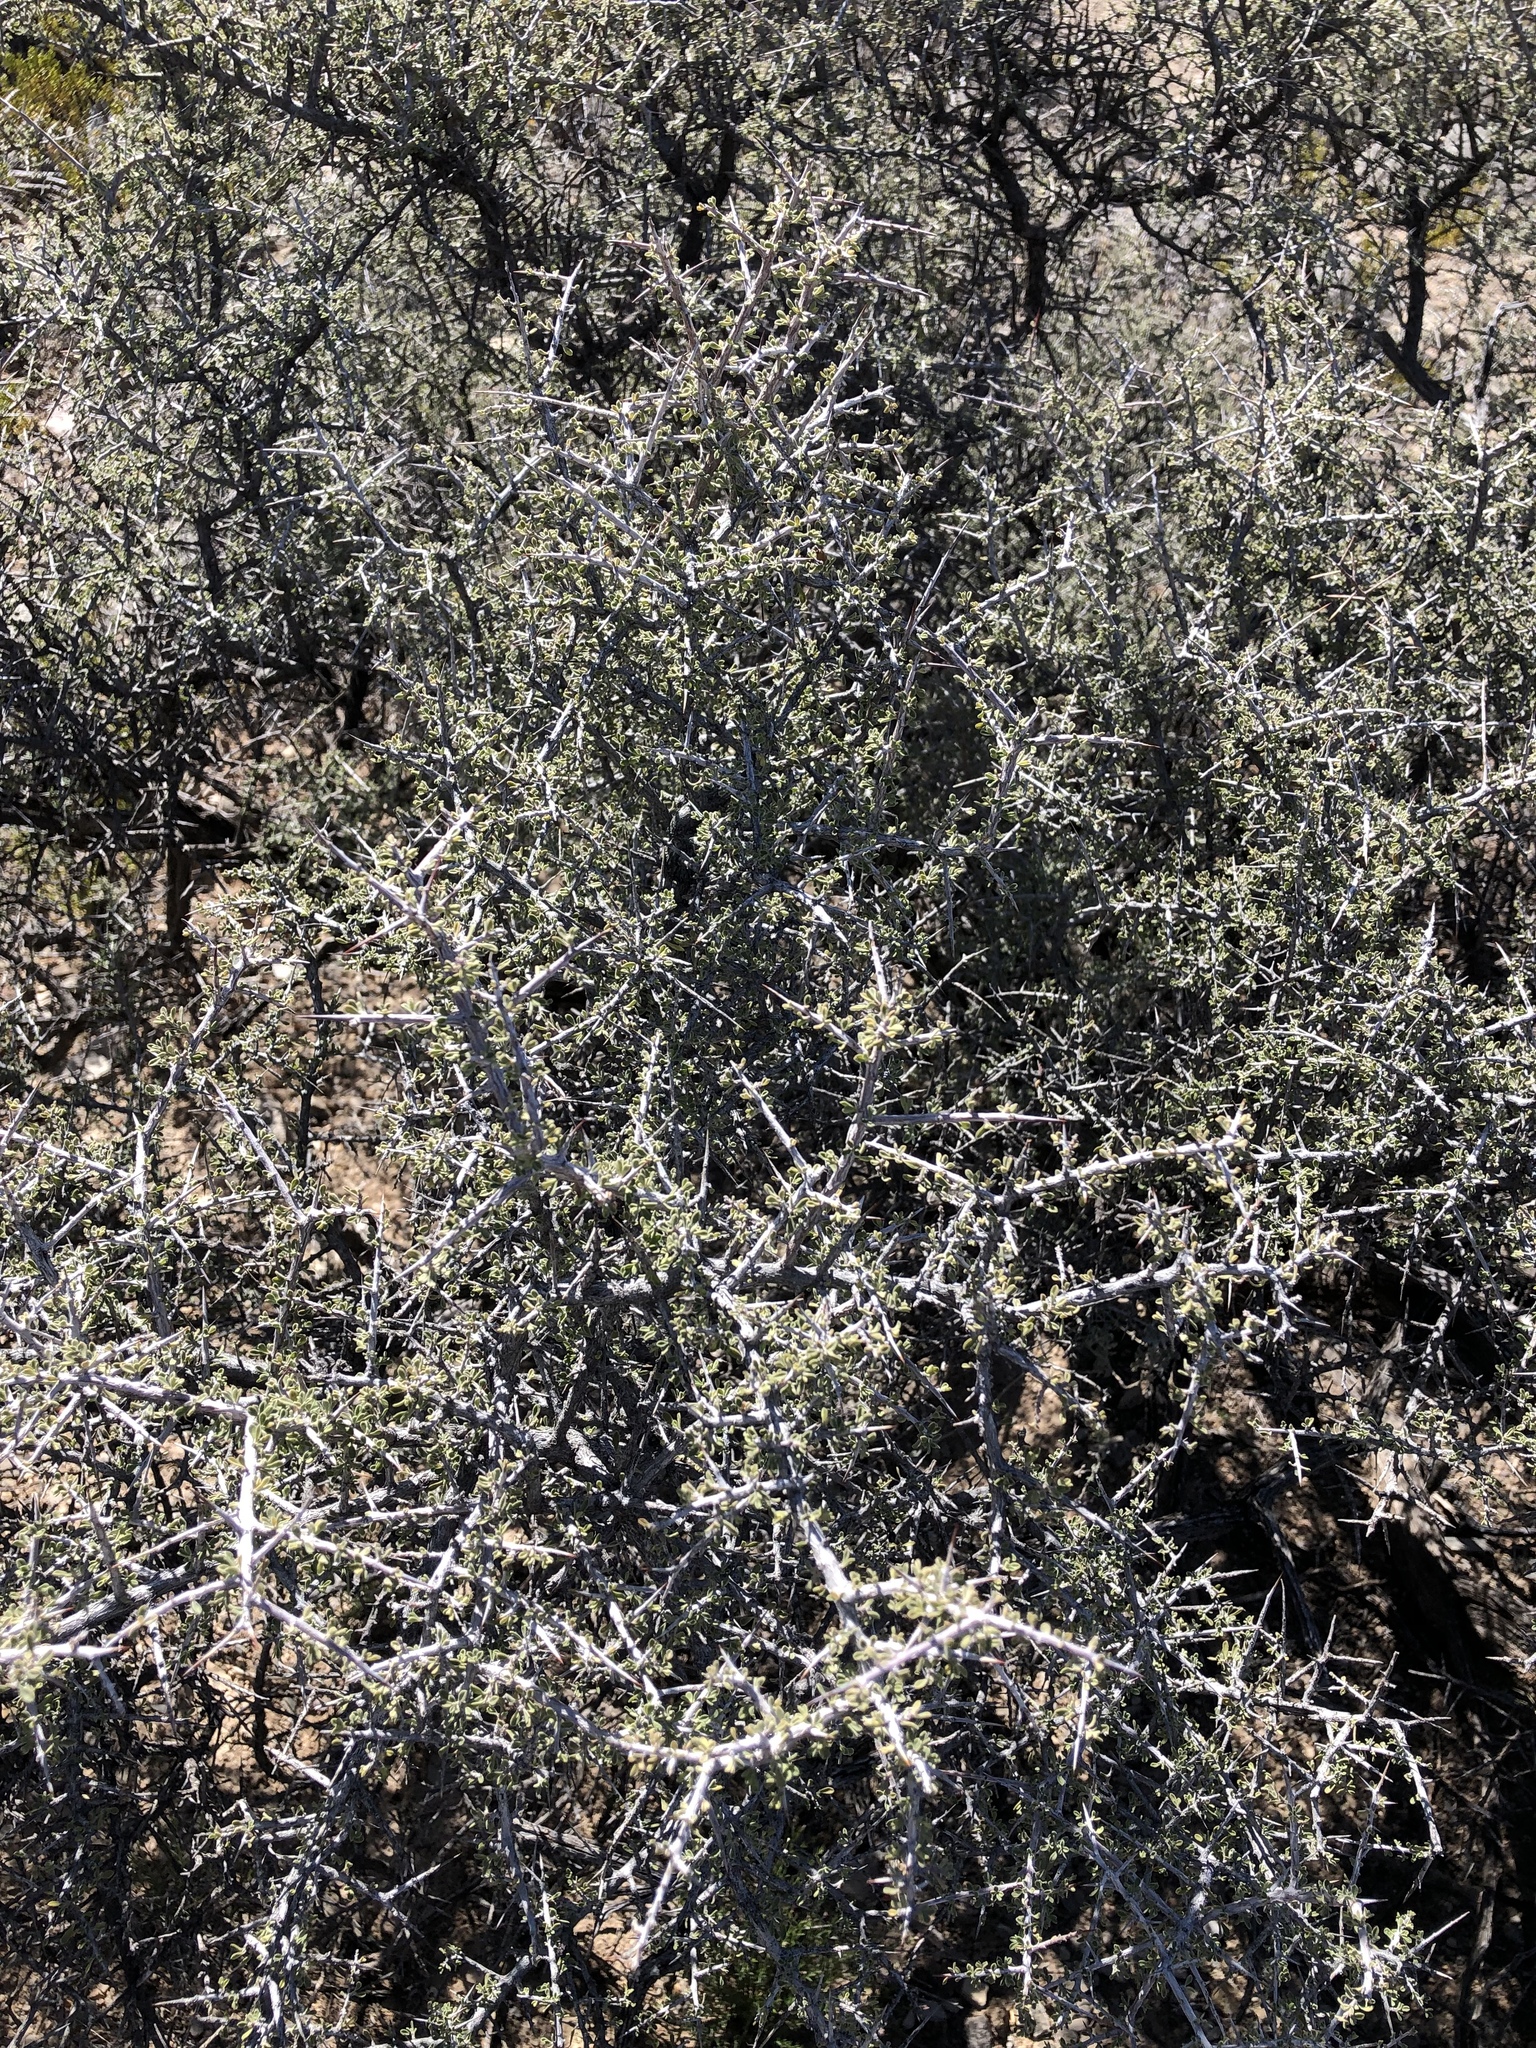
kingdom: Plantae
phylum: Tracheophyta
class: Magnoliopsida
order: Rosales
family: Rhamnaceae
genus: Condalia
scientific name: Condalia warnockii
